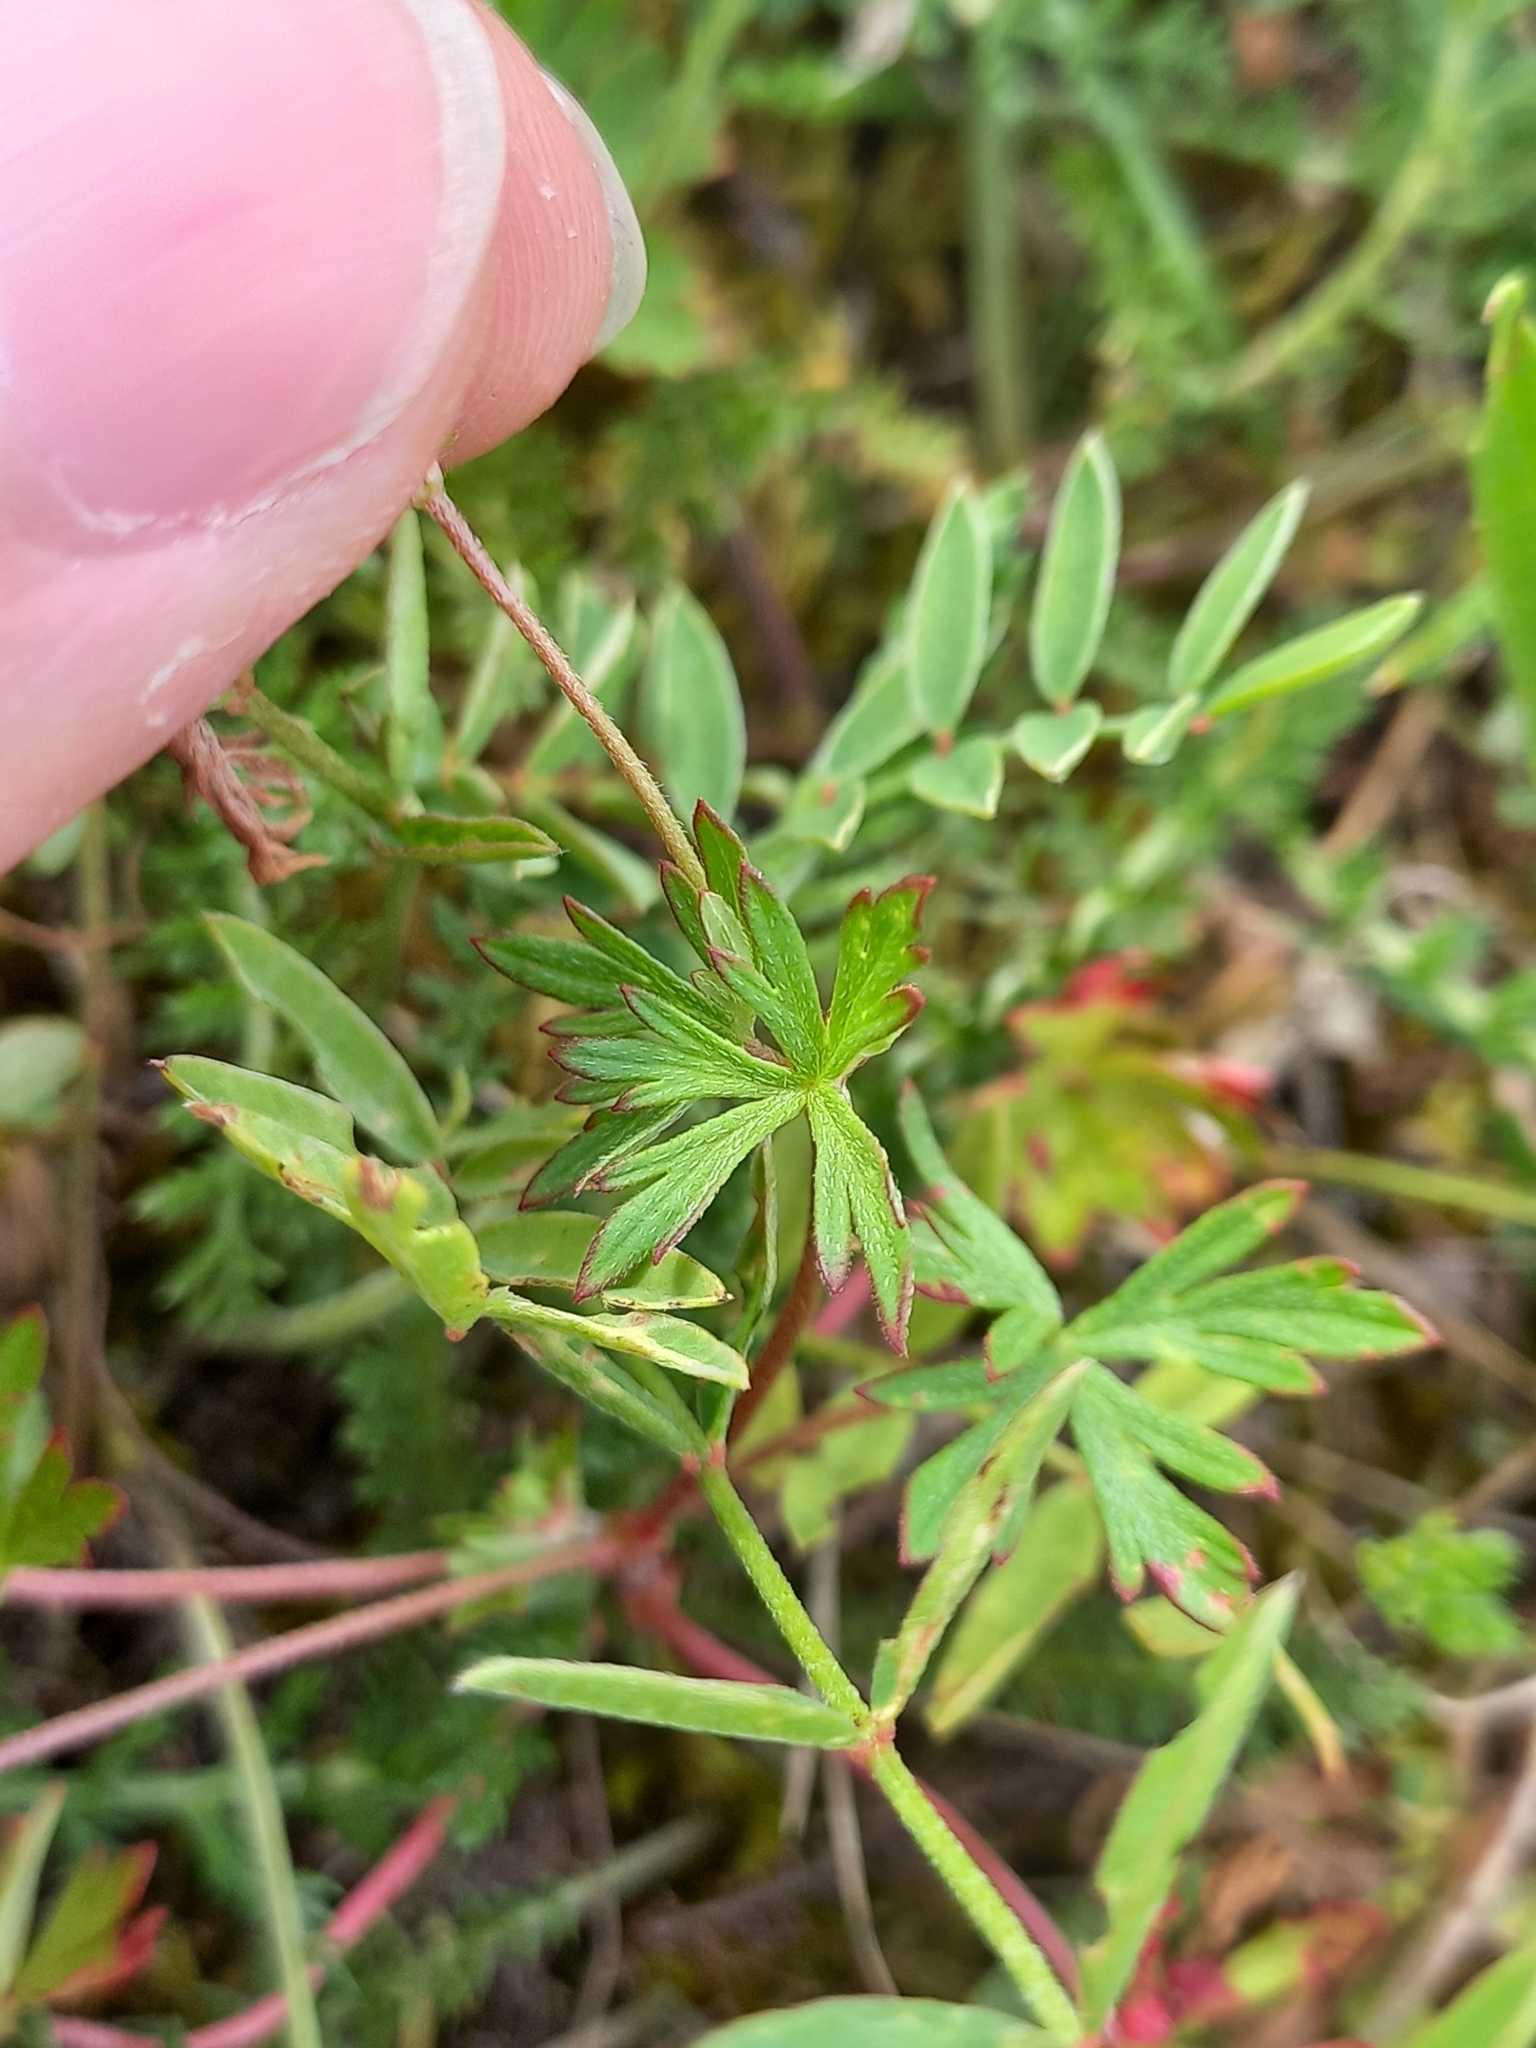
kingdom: Plantae
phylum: Tracheophyta
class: Magnoliopsida
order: Geraniales
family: Geraniaceae
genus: Geranium
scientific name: Geranium columbinum
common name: Long-stalked crane's-bill
